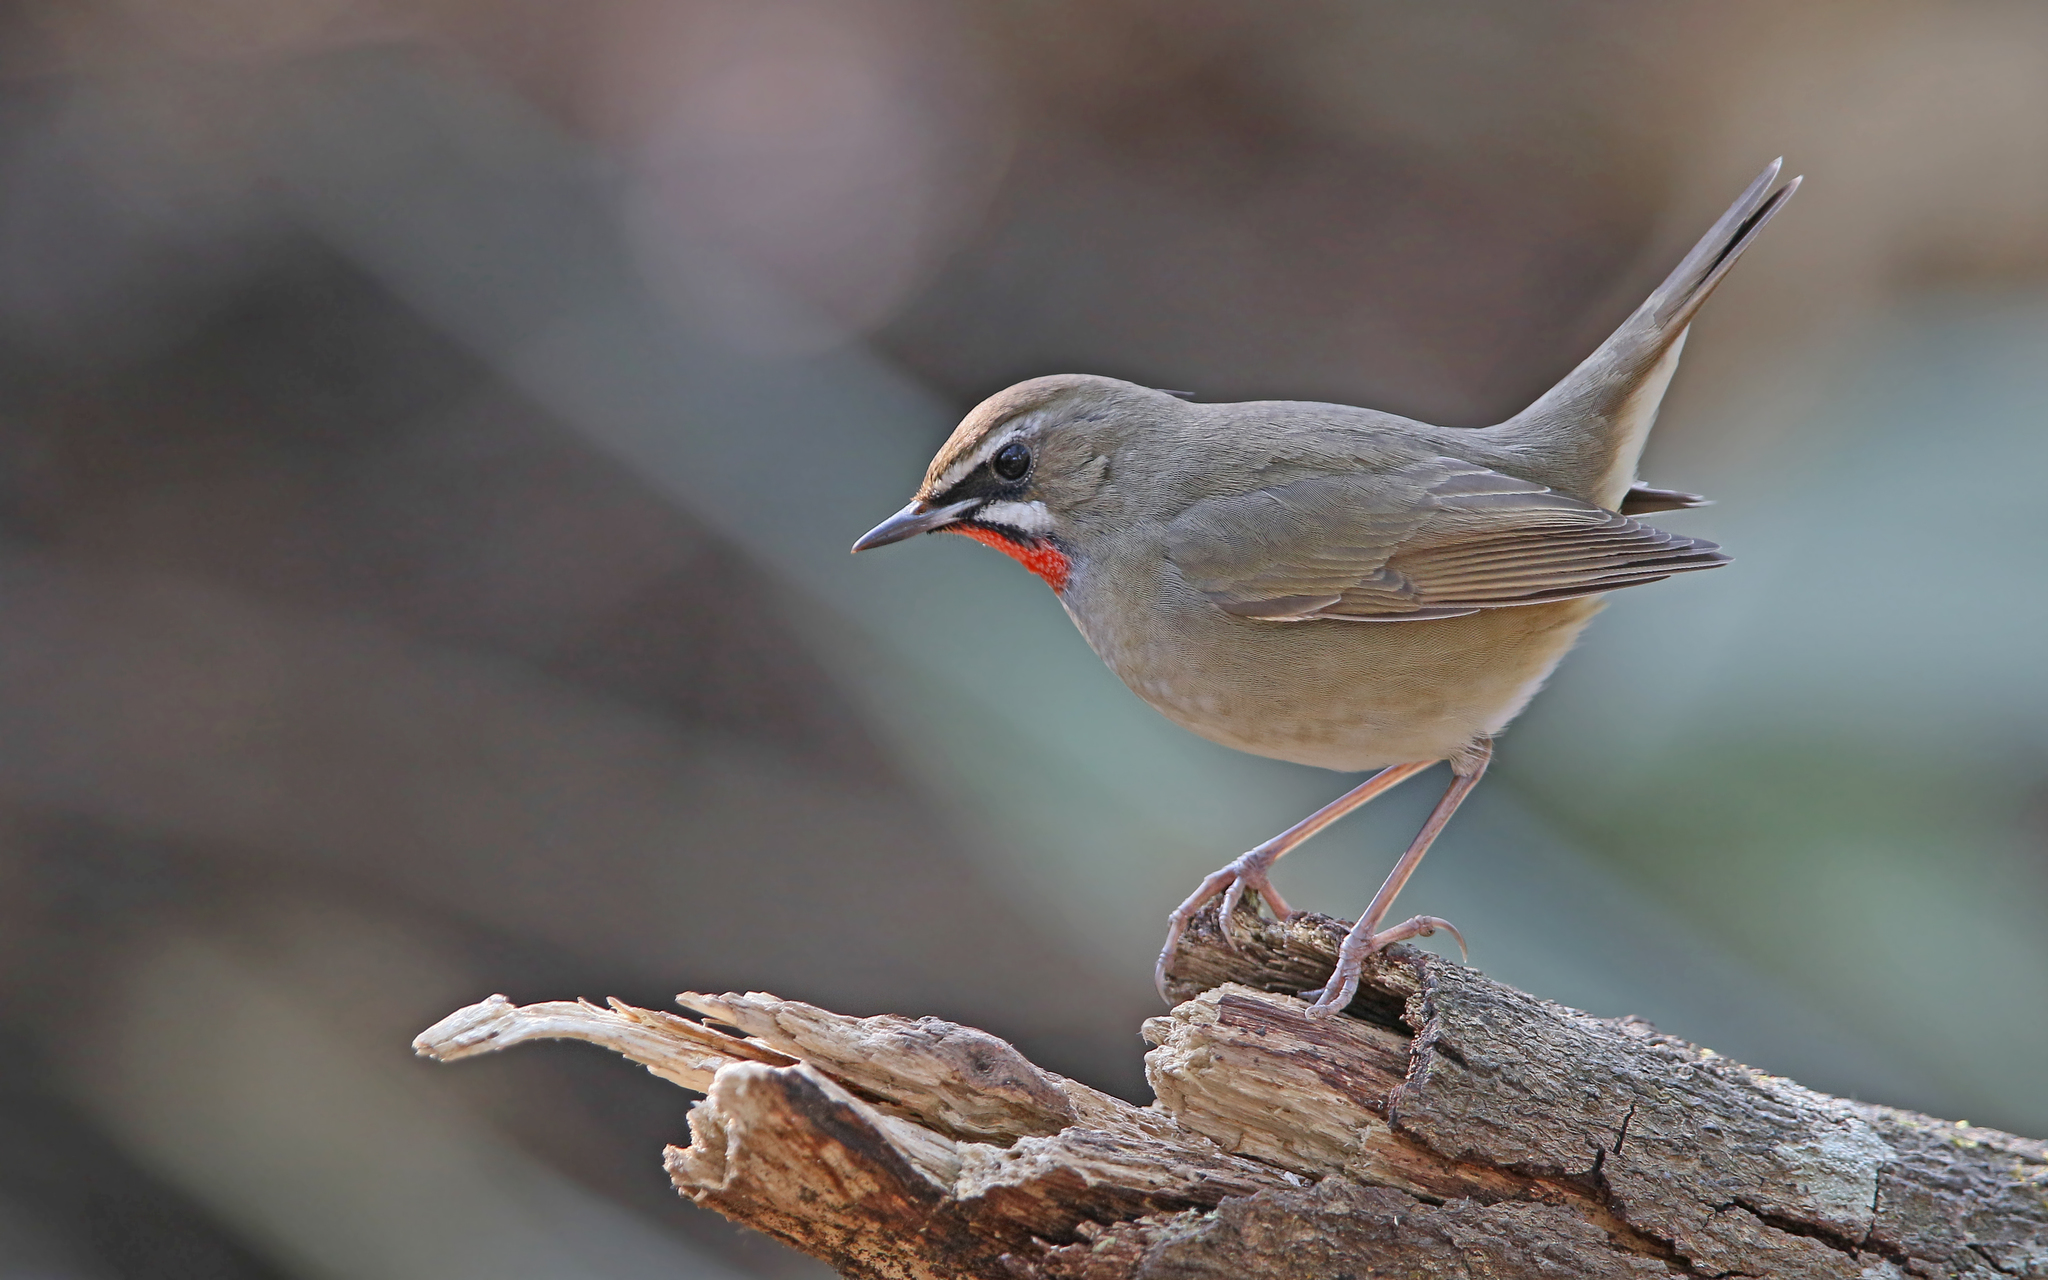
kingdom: Animalia
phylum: Chordata
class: Aves
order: Passeriformes
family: Muscicapidae
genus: Luscinia
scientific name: Luscinia calliope
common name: Siberian rubythroat
